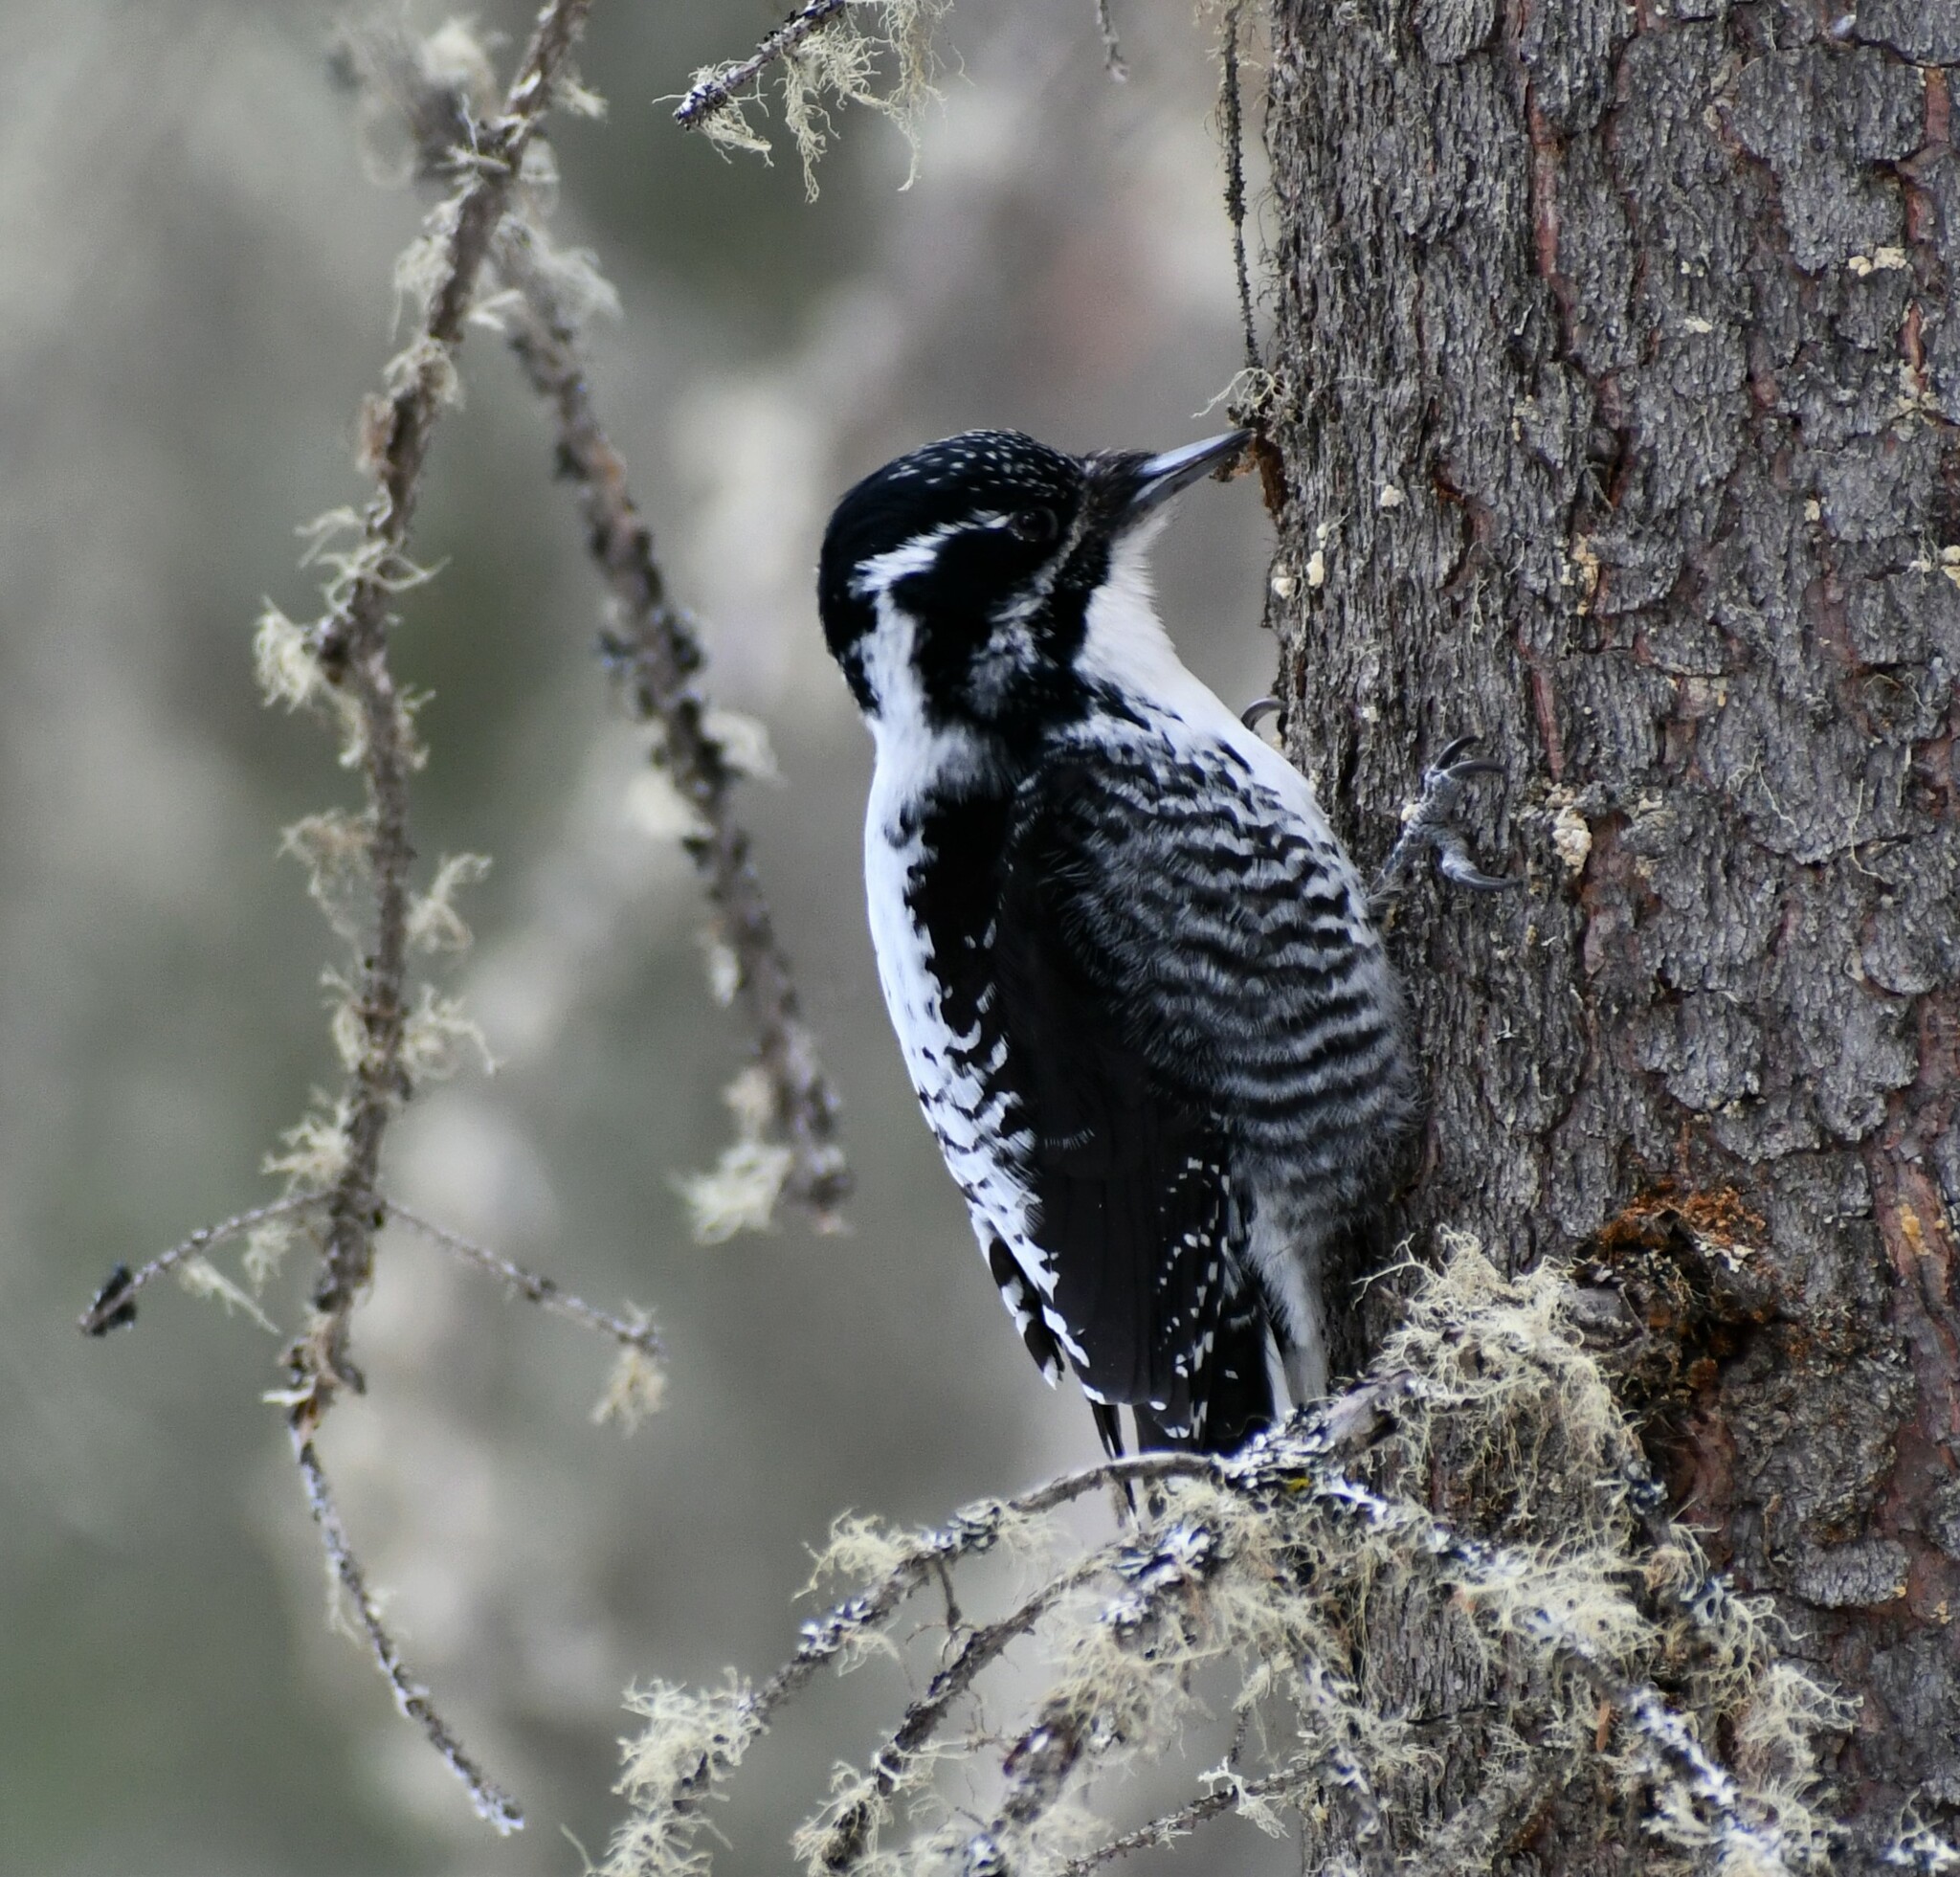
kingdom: Animalia
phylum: Chordata
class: Aves
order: Piciformes
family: Picidae
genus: Picoides
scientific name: Picoides dorsalis
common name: American three-toed woodpecker
